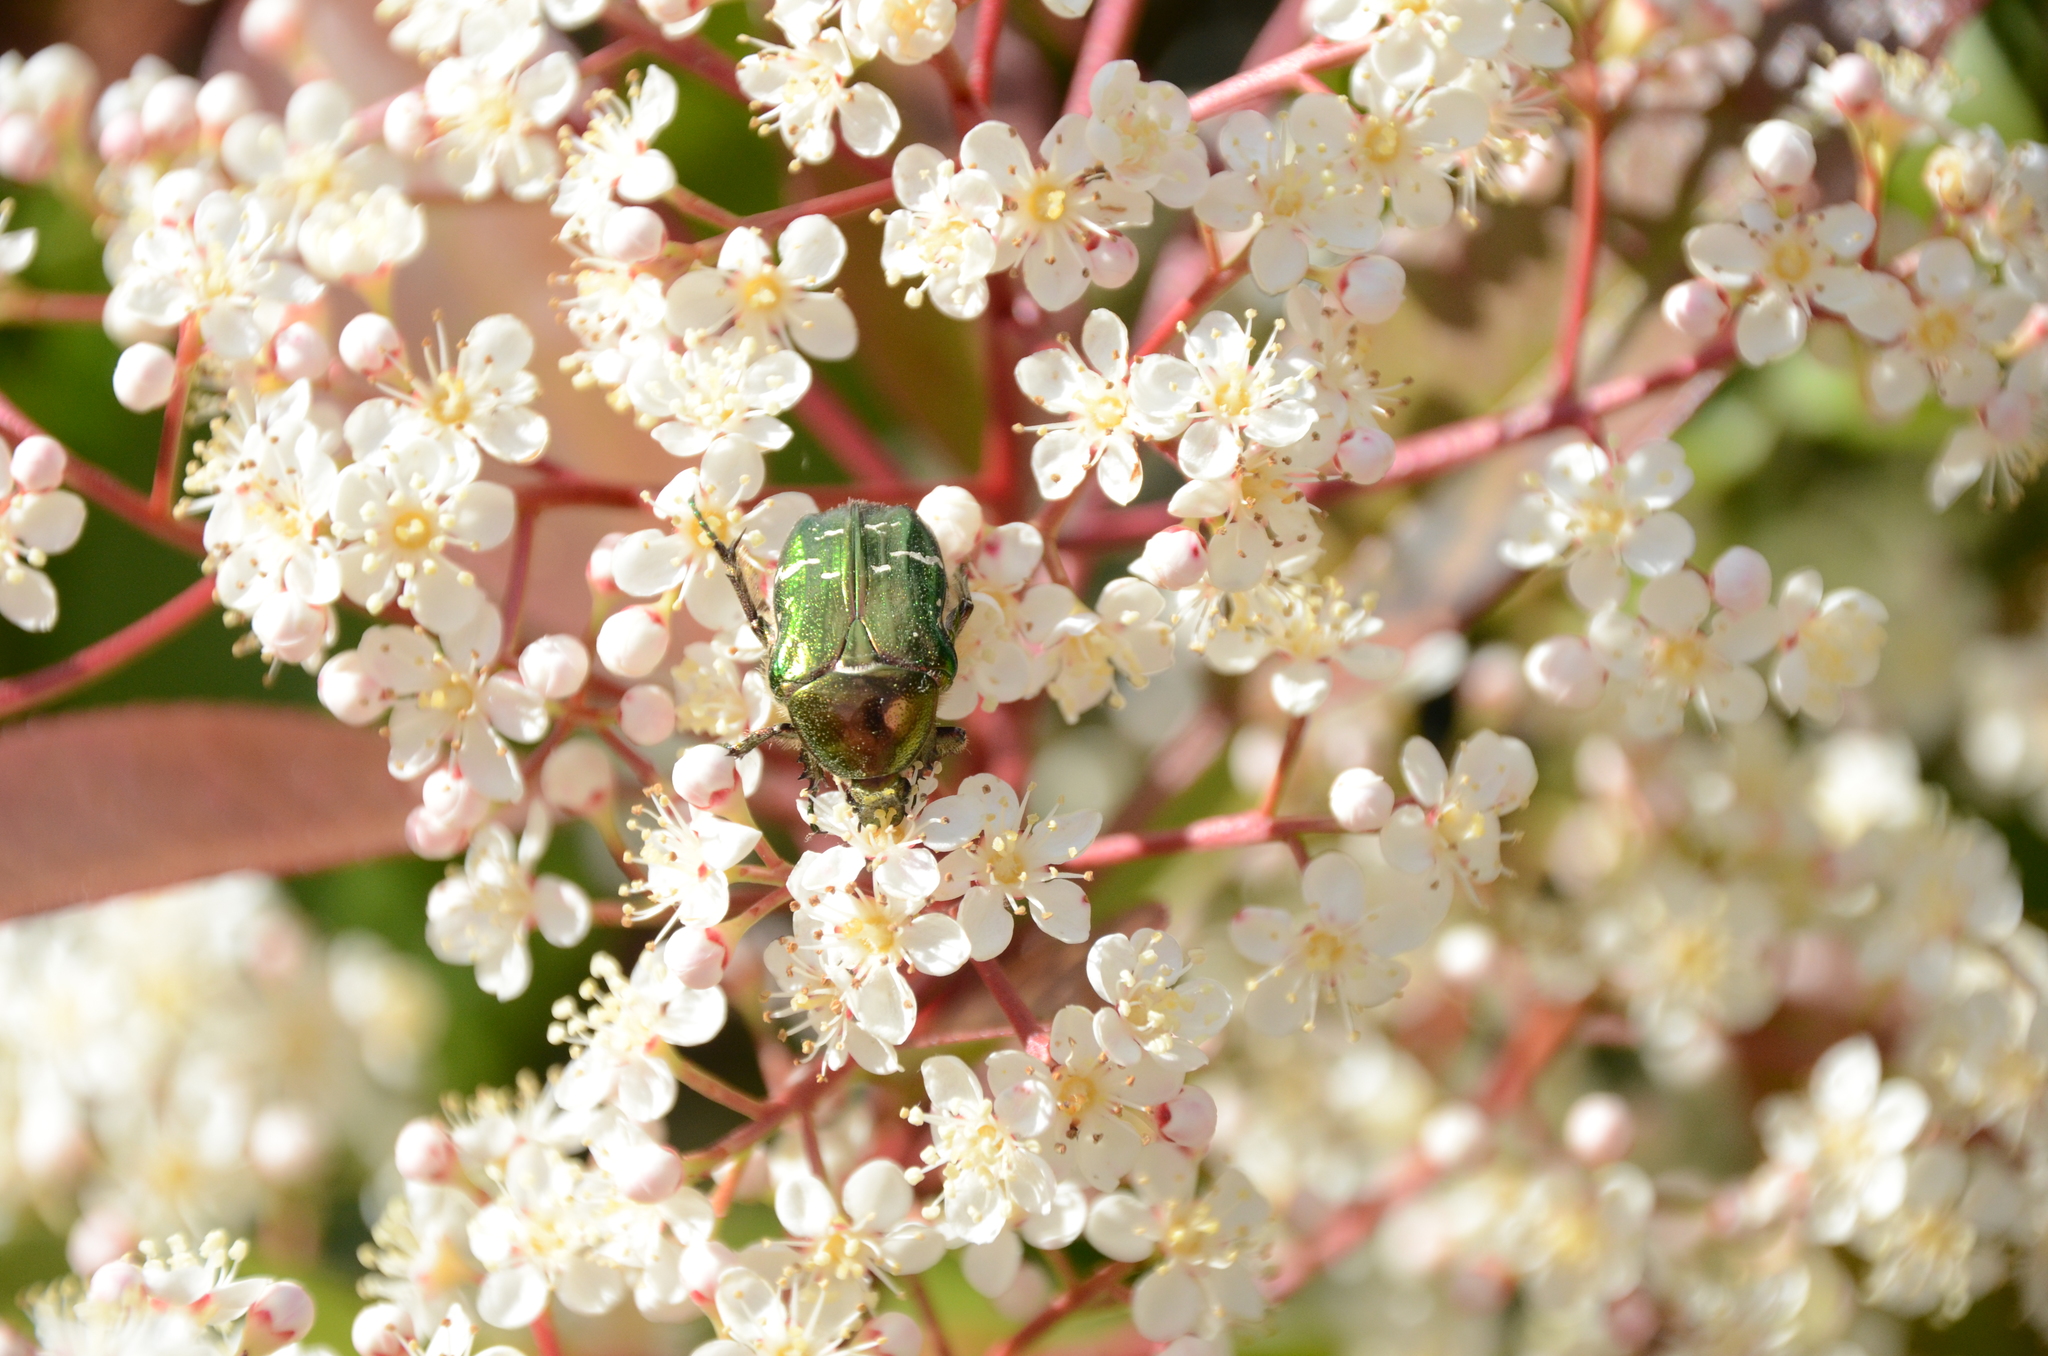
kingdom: Animalia
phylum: Arthropoda
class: Insecta
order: Coleoptera
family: Scarabaeidae
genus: Cetonia
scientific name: Cetonia aurata
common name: Rose chafer
